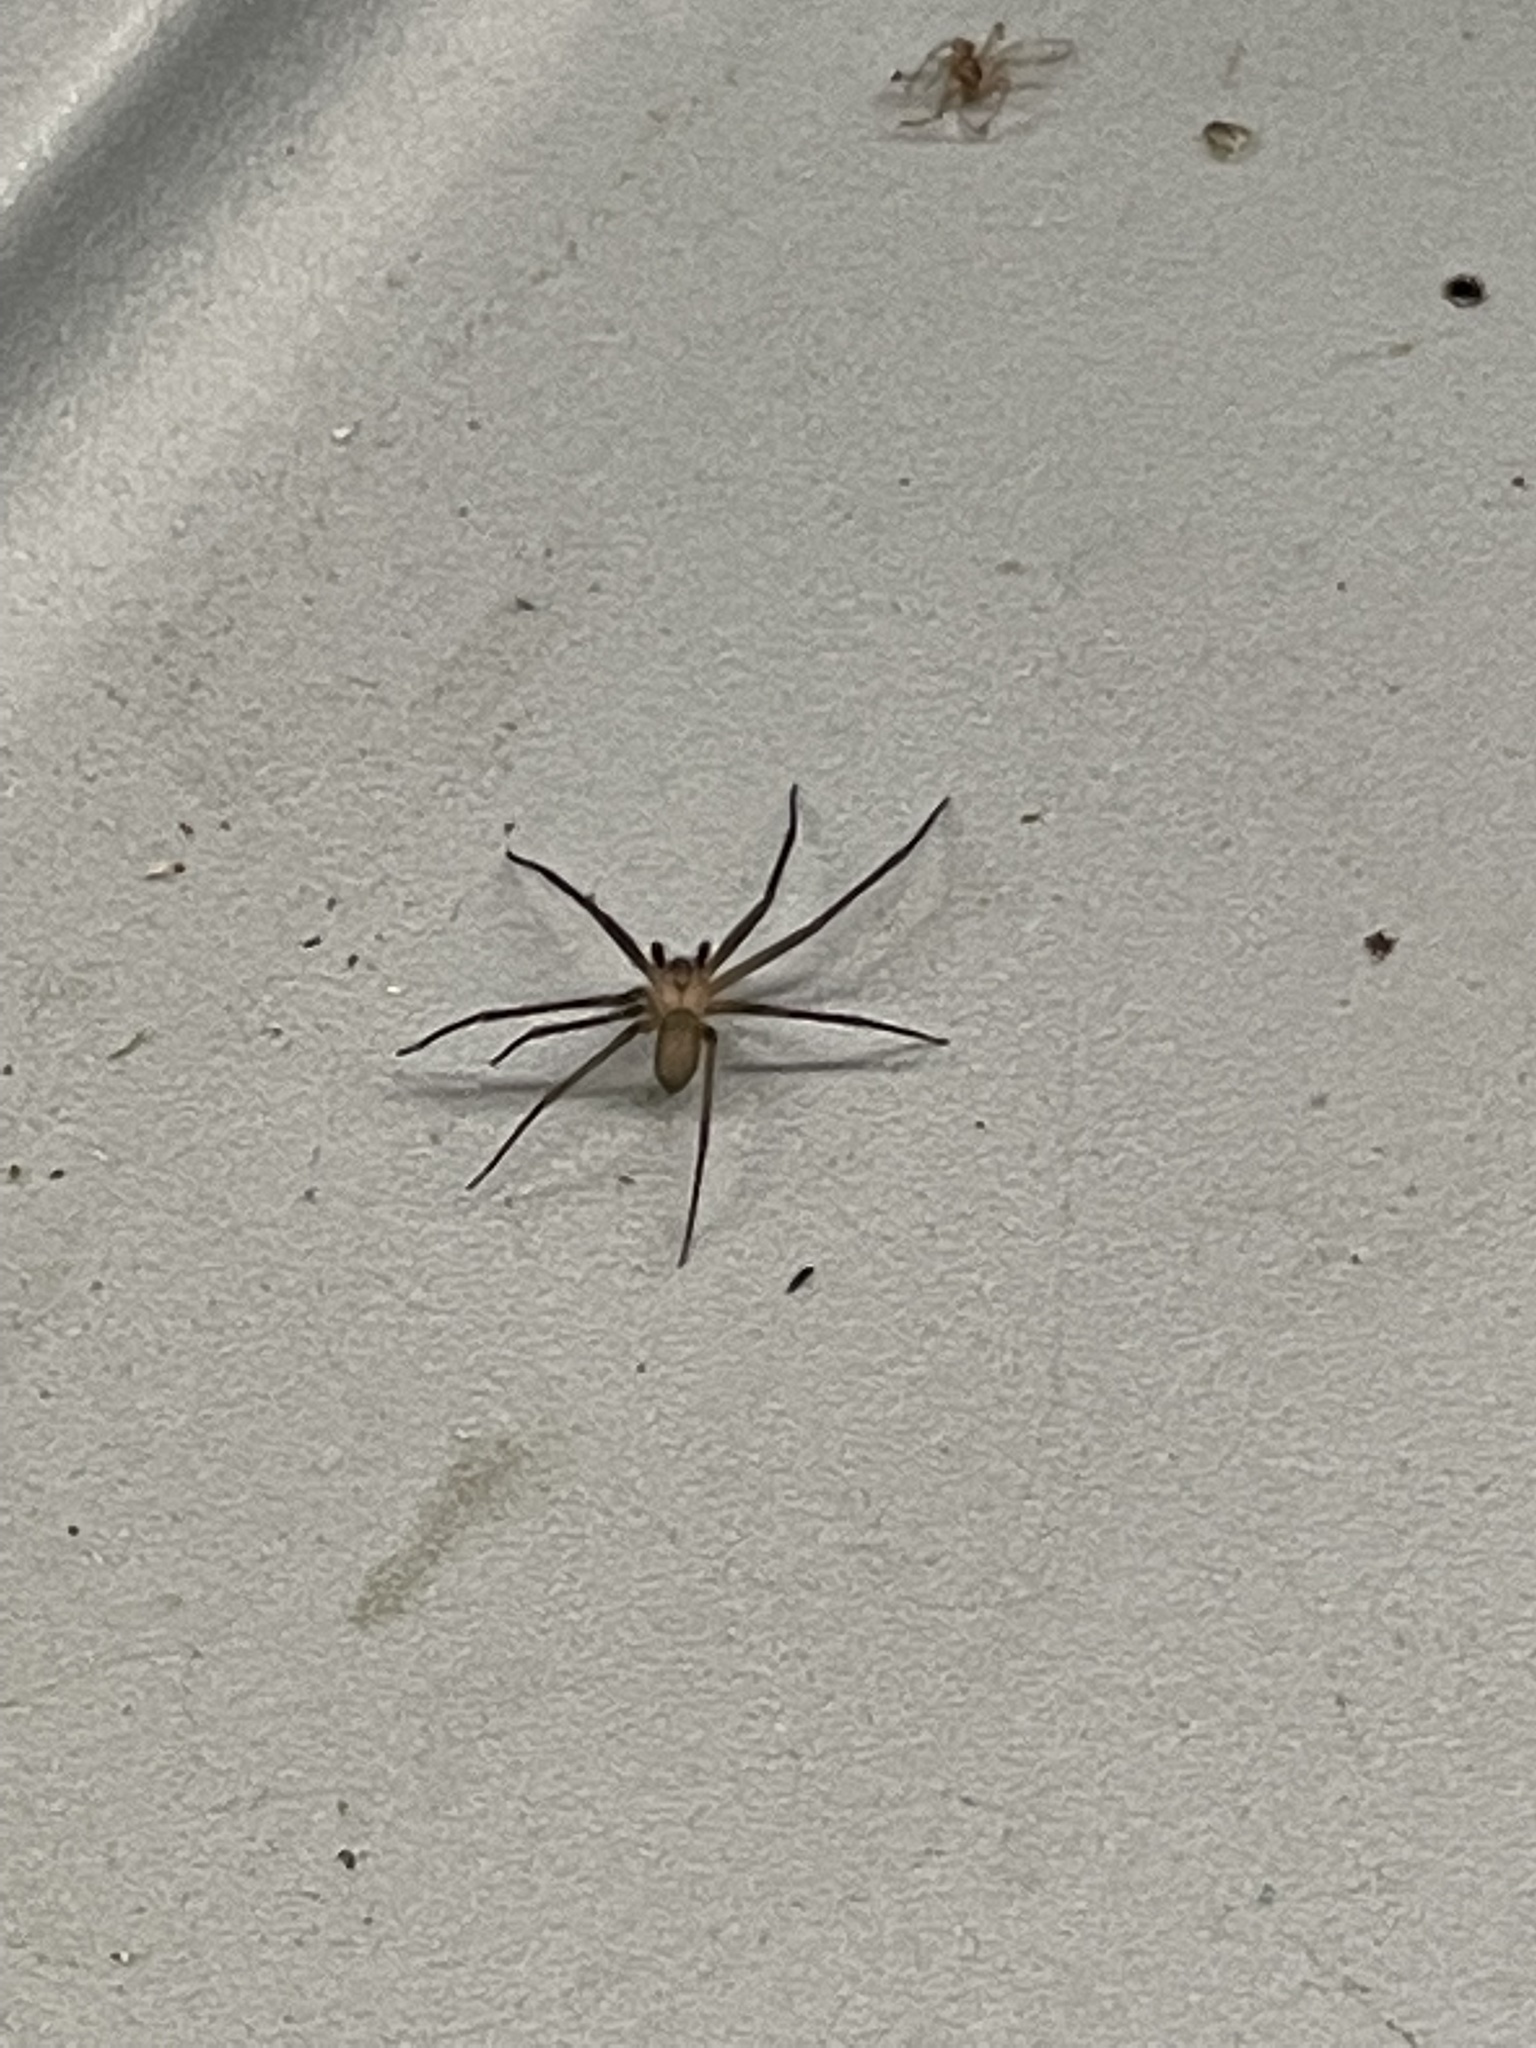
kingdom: Animalia
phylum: Arthropoda
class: Arachnida
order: Araneae
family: Sicariidae
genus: Loxosceles
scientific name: Loxosceles reclusa
